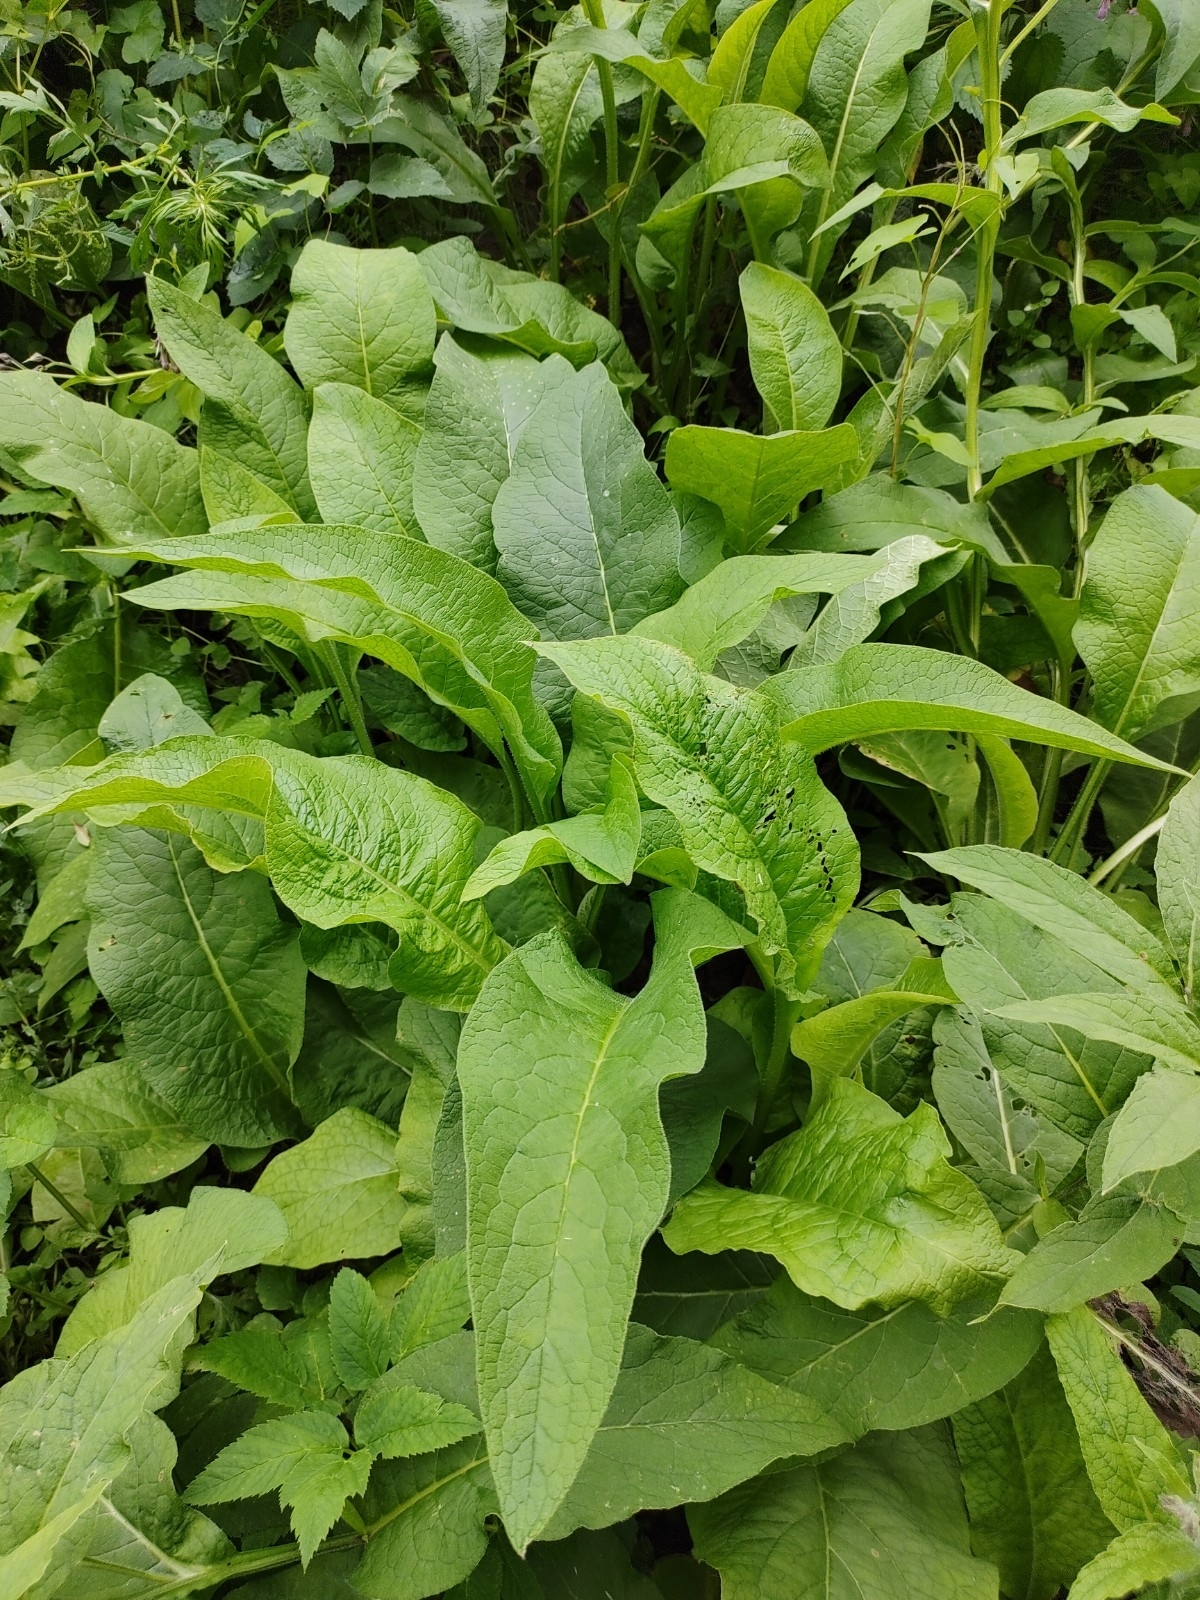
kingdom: Plantae
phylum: Tracheophyta
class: Magnoliopsida
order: Boraginales
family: Boraginaceae
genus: Symphytum
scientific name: Symphytum officinale
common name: Common comfrey
